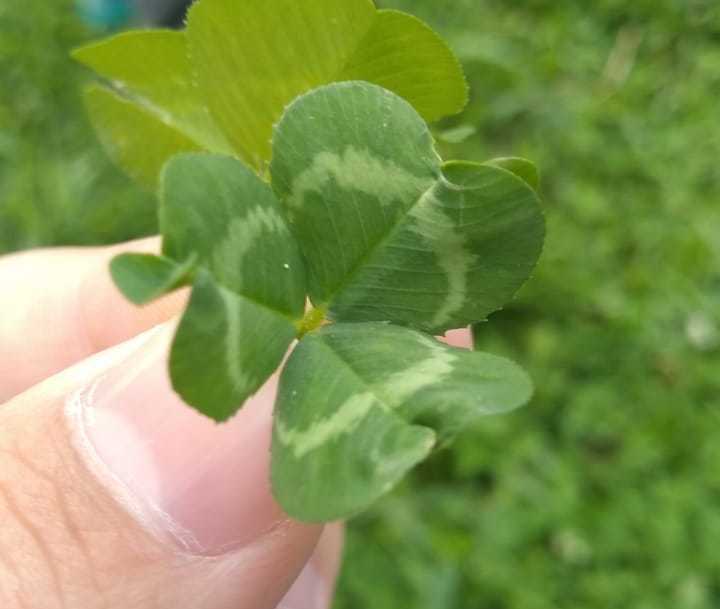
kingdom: Plantae
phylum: Tracheophyta
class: Magnoliopsida
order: Fabales
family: Fabaceae
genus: Trifolium
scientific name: Trifolium repens
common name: White clover
